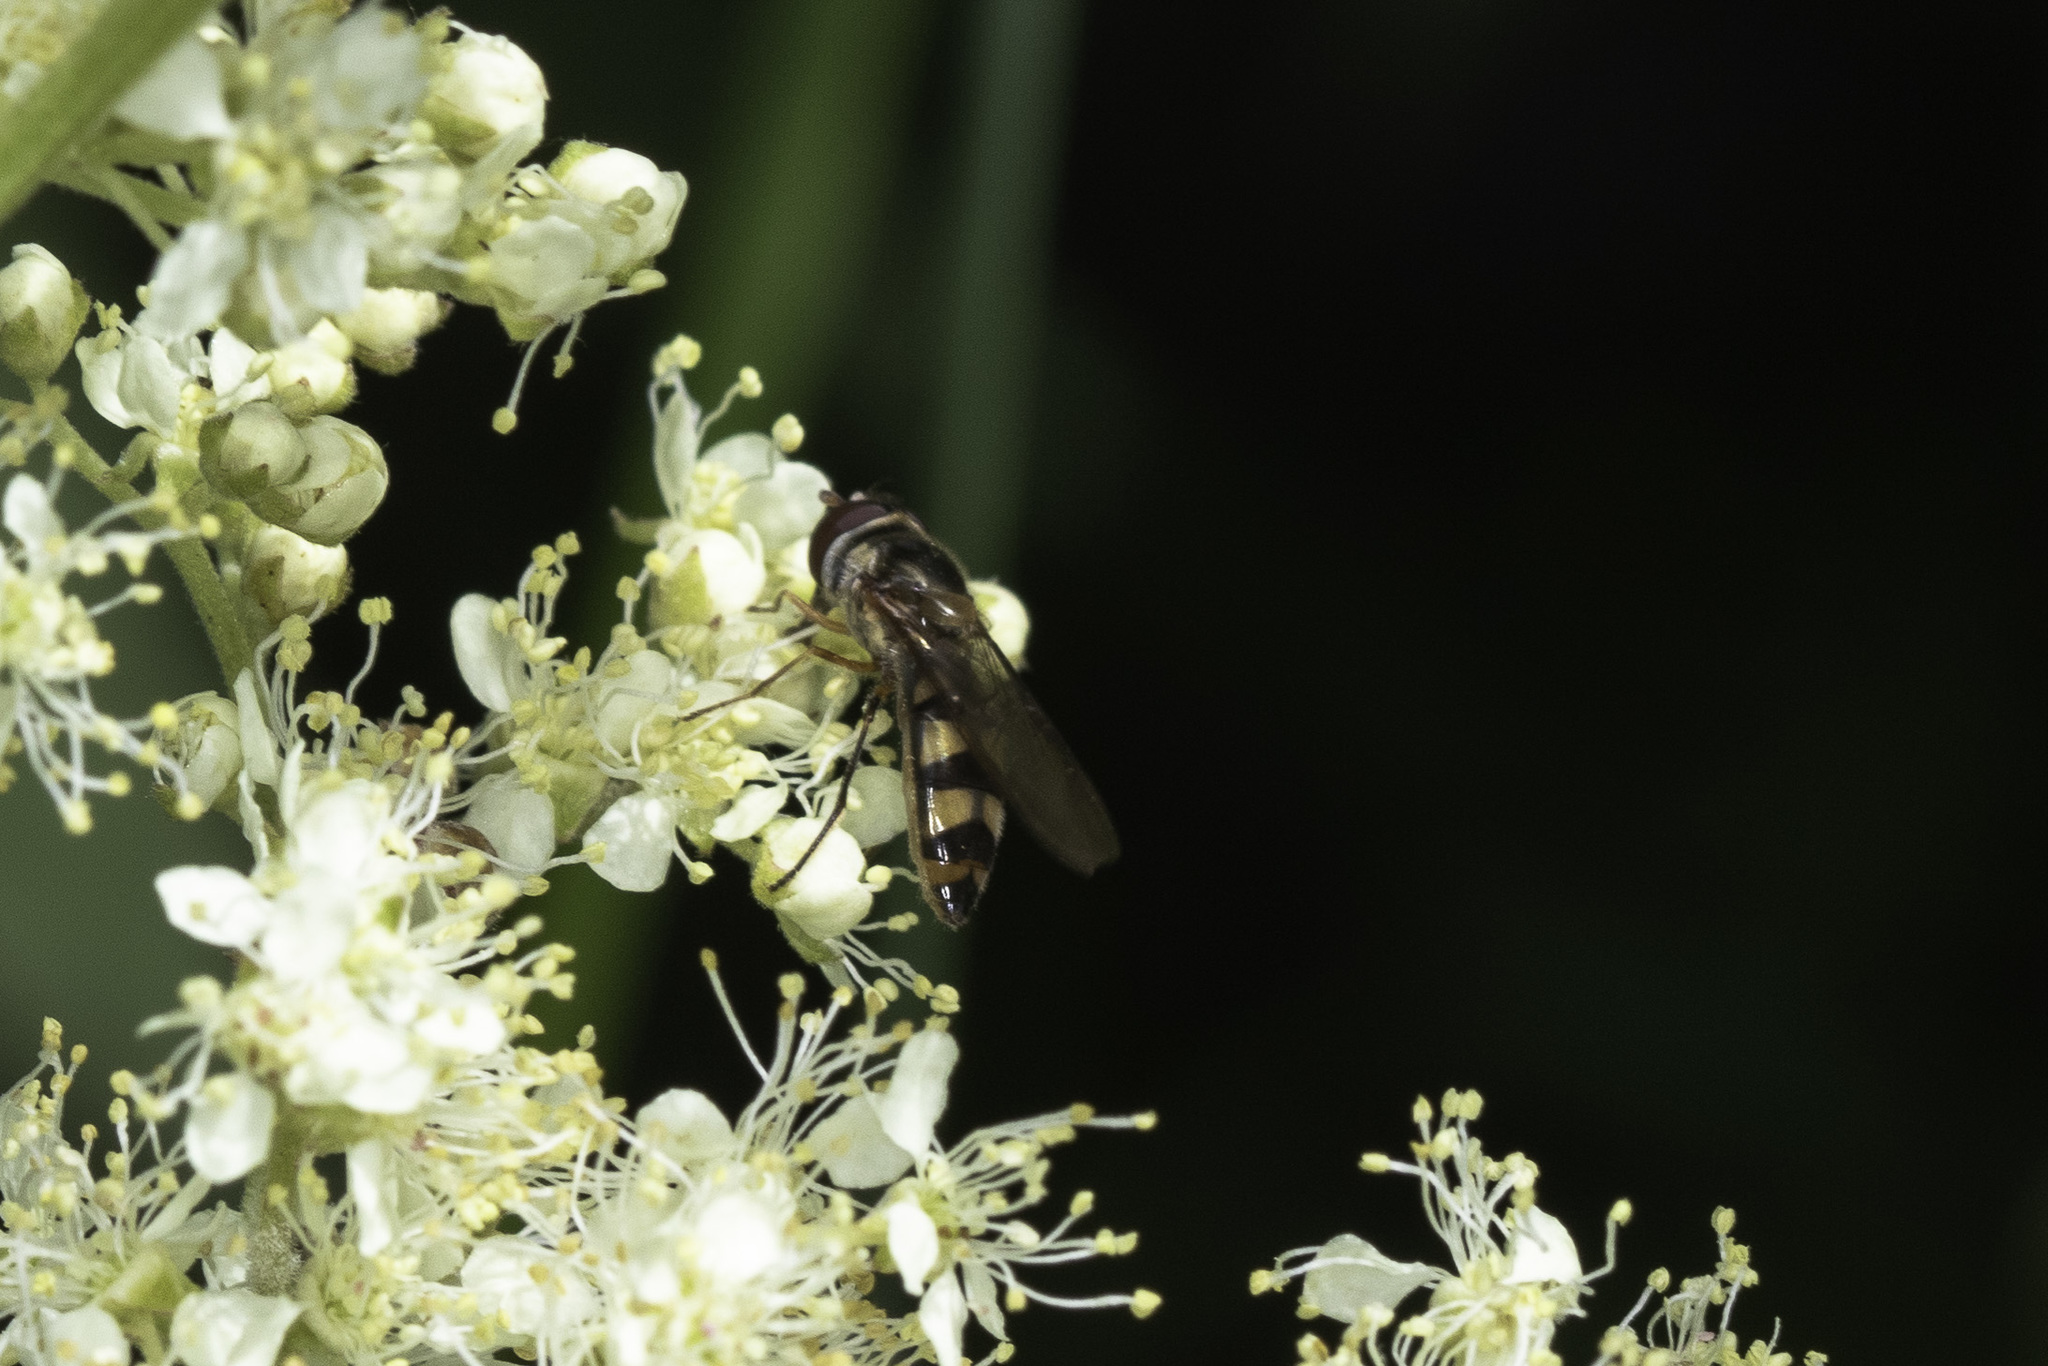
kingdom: Animalia
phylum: Arthropoda
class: Insecta
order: Diptera
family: Syrphidae
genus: Meliscaeva
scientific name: Meliscaeva auricollis
